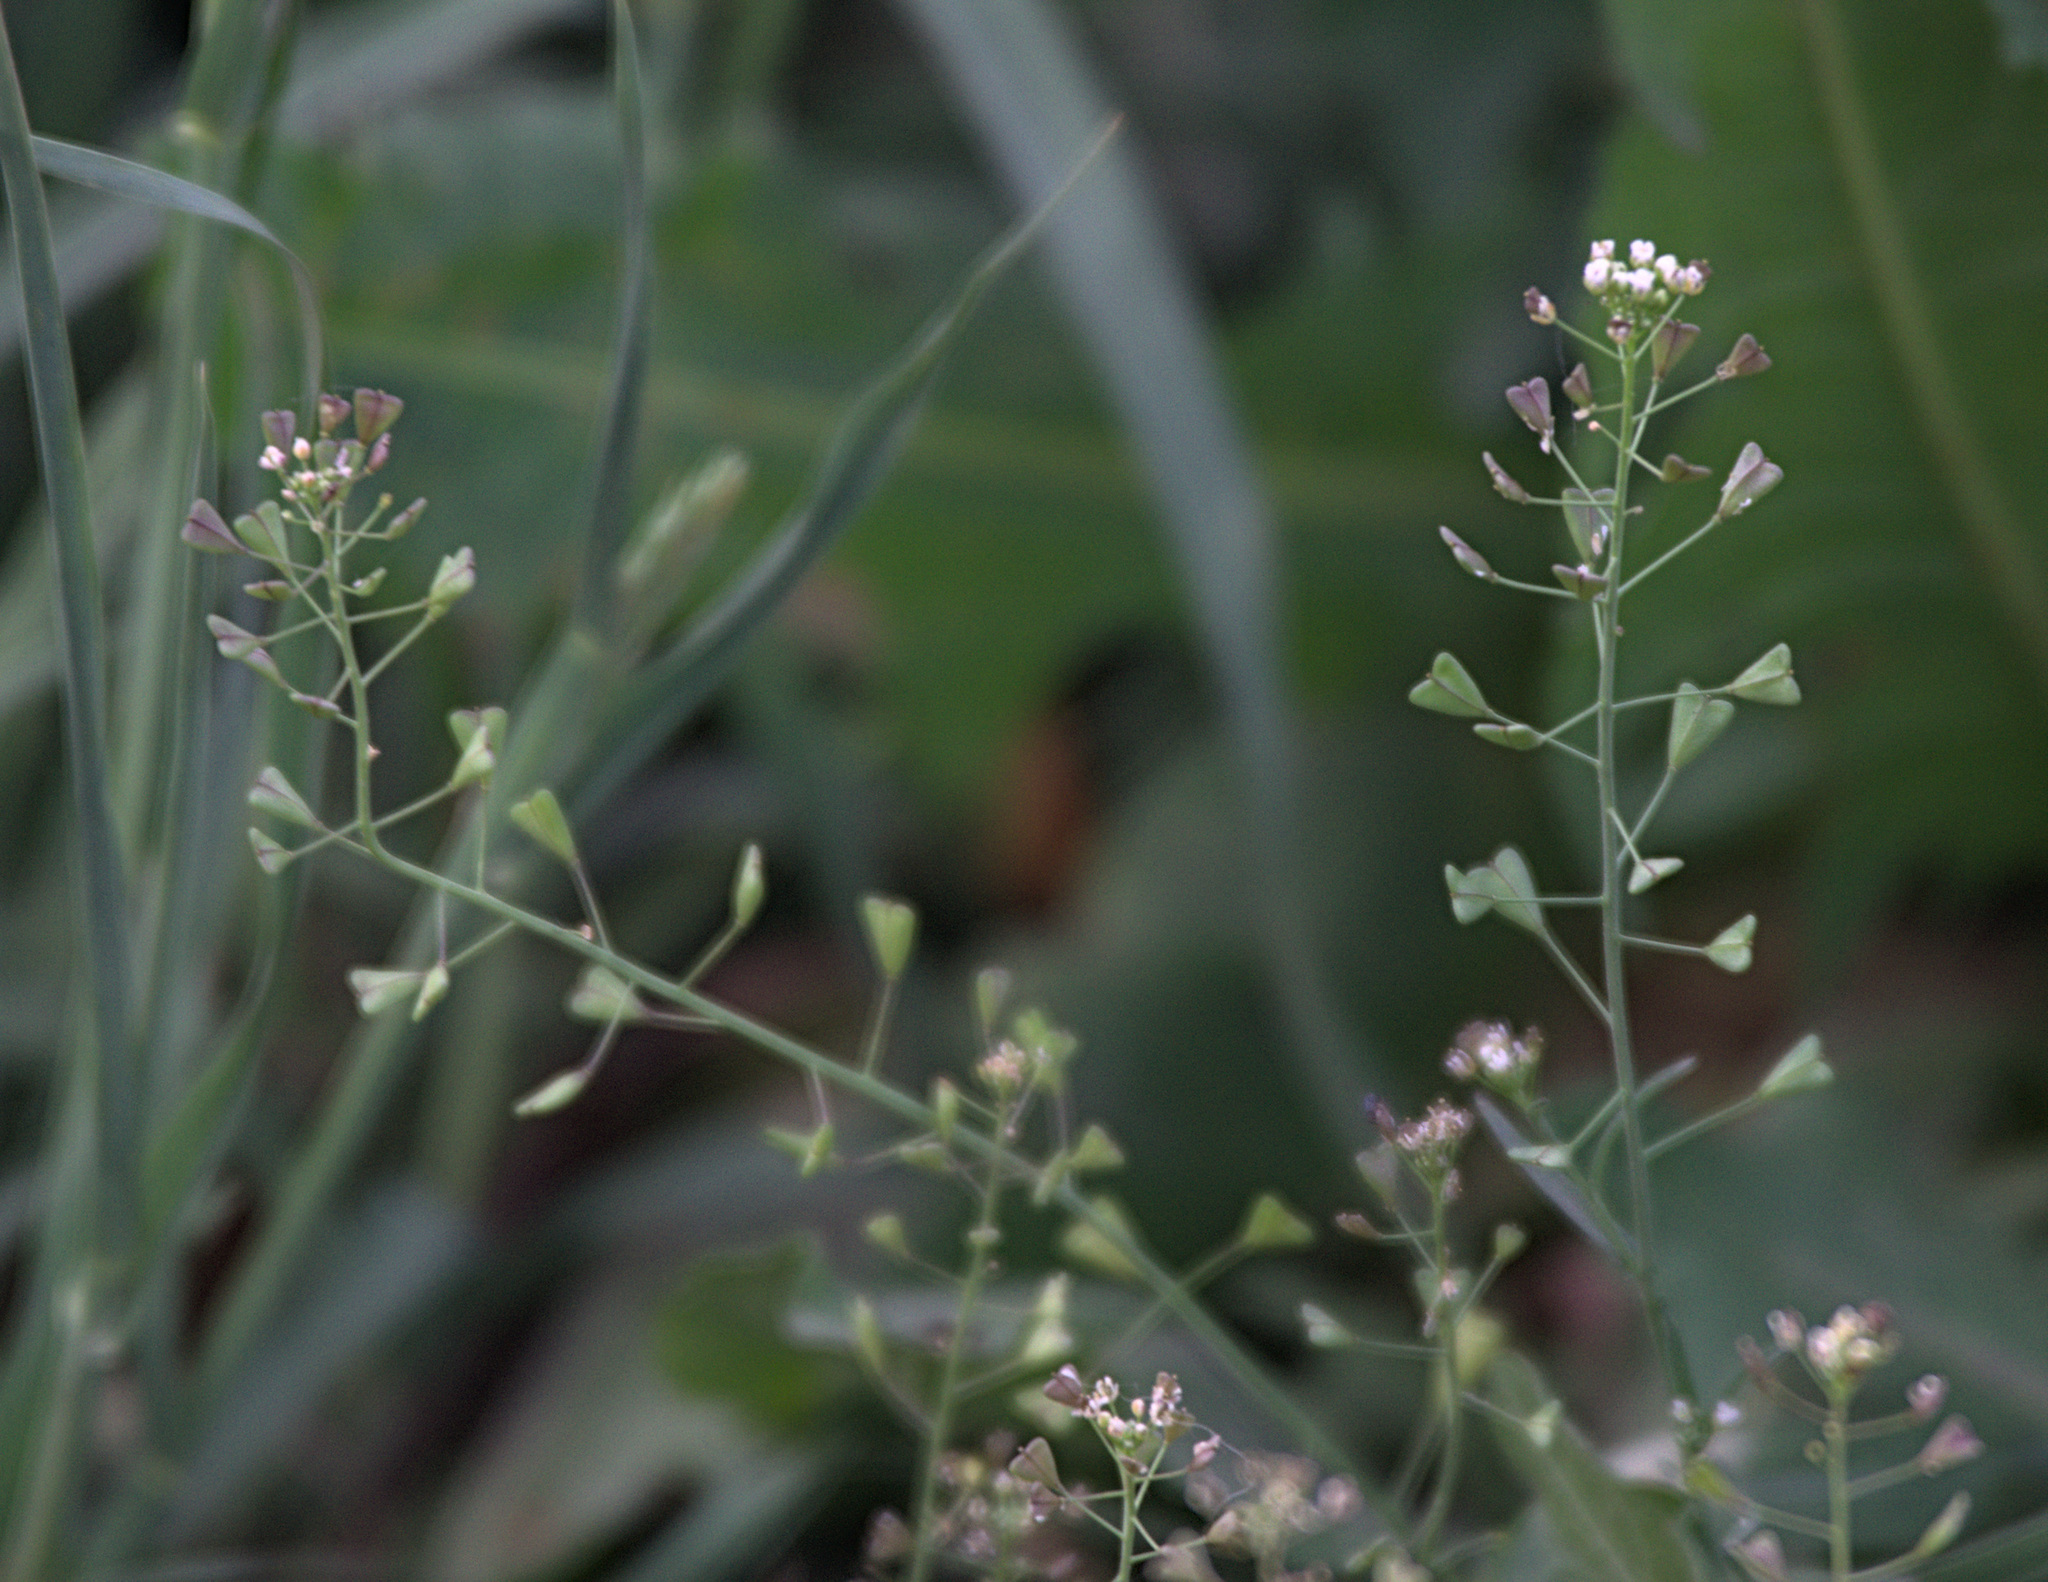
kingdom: Plantae
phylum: Tracheophyta
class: Magnoliopsida
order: Brassicales
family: Brassicaceae
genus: Capsella
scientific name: Capsella bursa-pastoris
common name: Shepherd's purse
